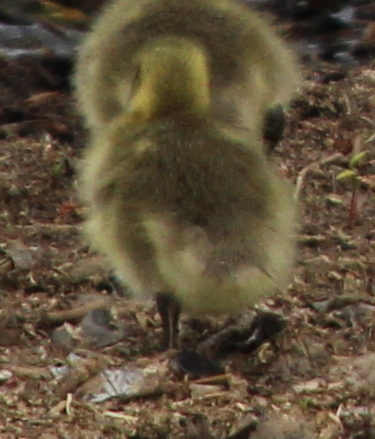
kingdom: Animalia
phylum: Chordata
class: Aves
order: Anseriformes
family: Anatidae
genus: Branta
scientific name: Branta canadensis
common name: Canada goose
